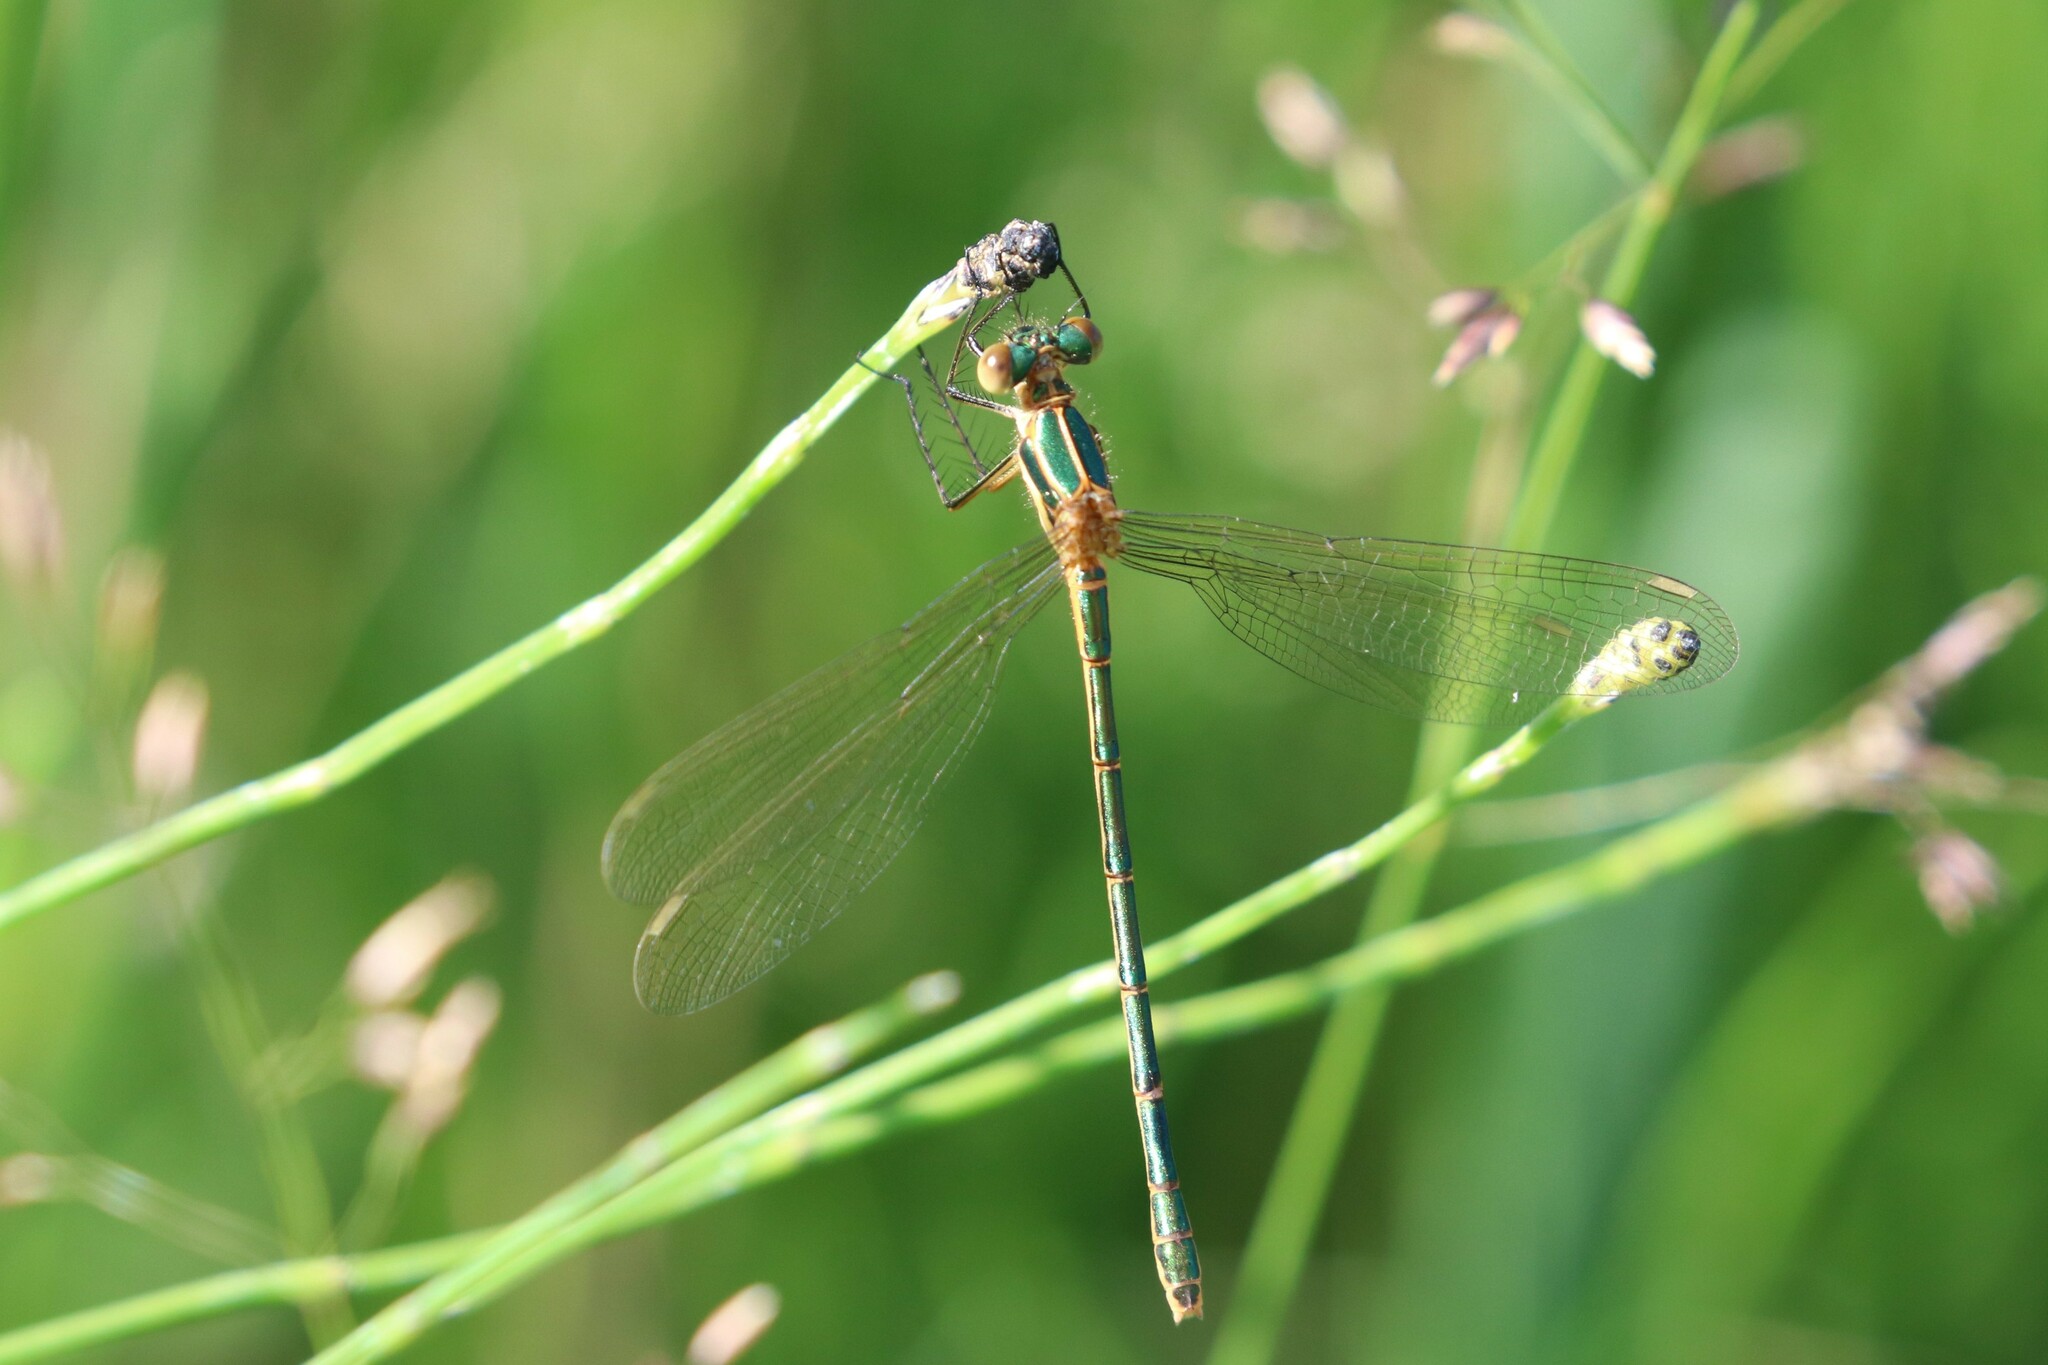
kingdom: Animalia
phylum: Arthropoda
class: Insecta
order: Odonata
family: Lestidae
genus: Lestes
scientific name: Lestes sponsa
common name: Common spreadwing
